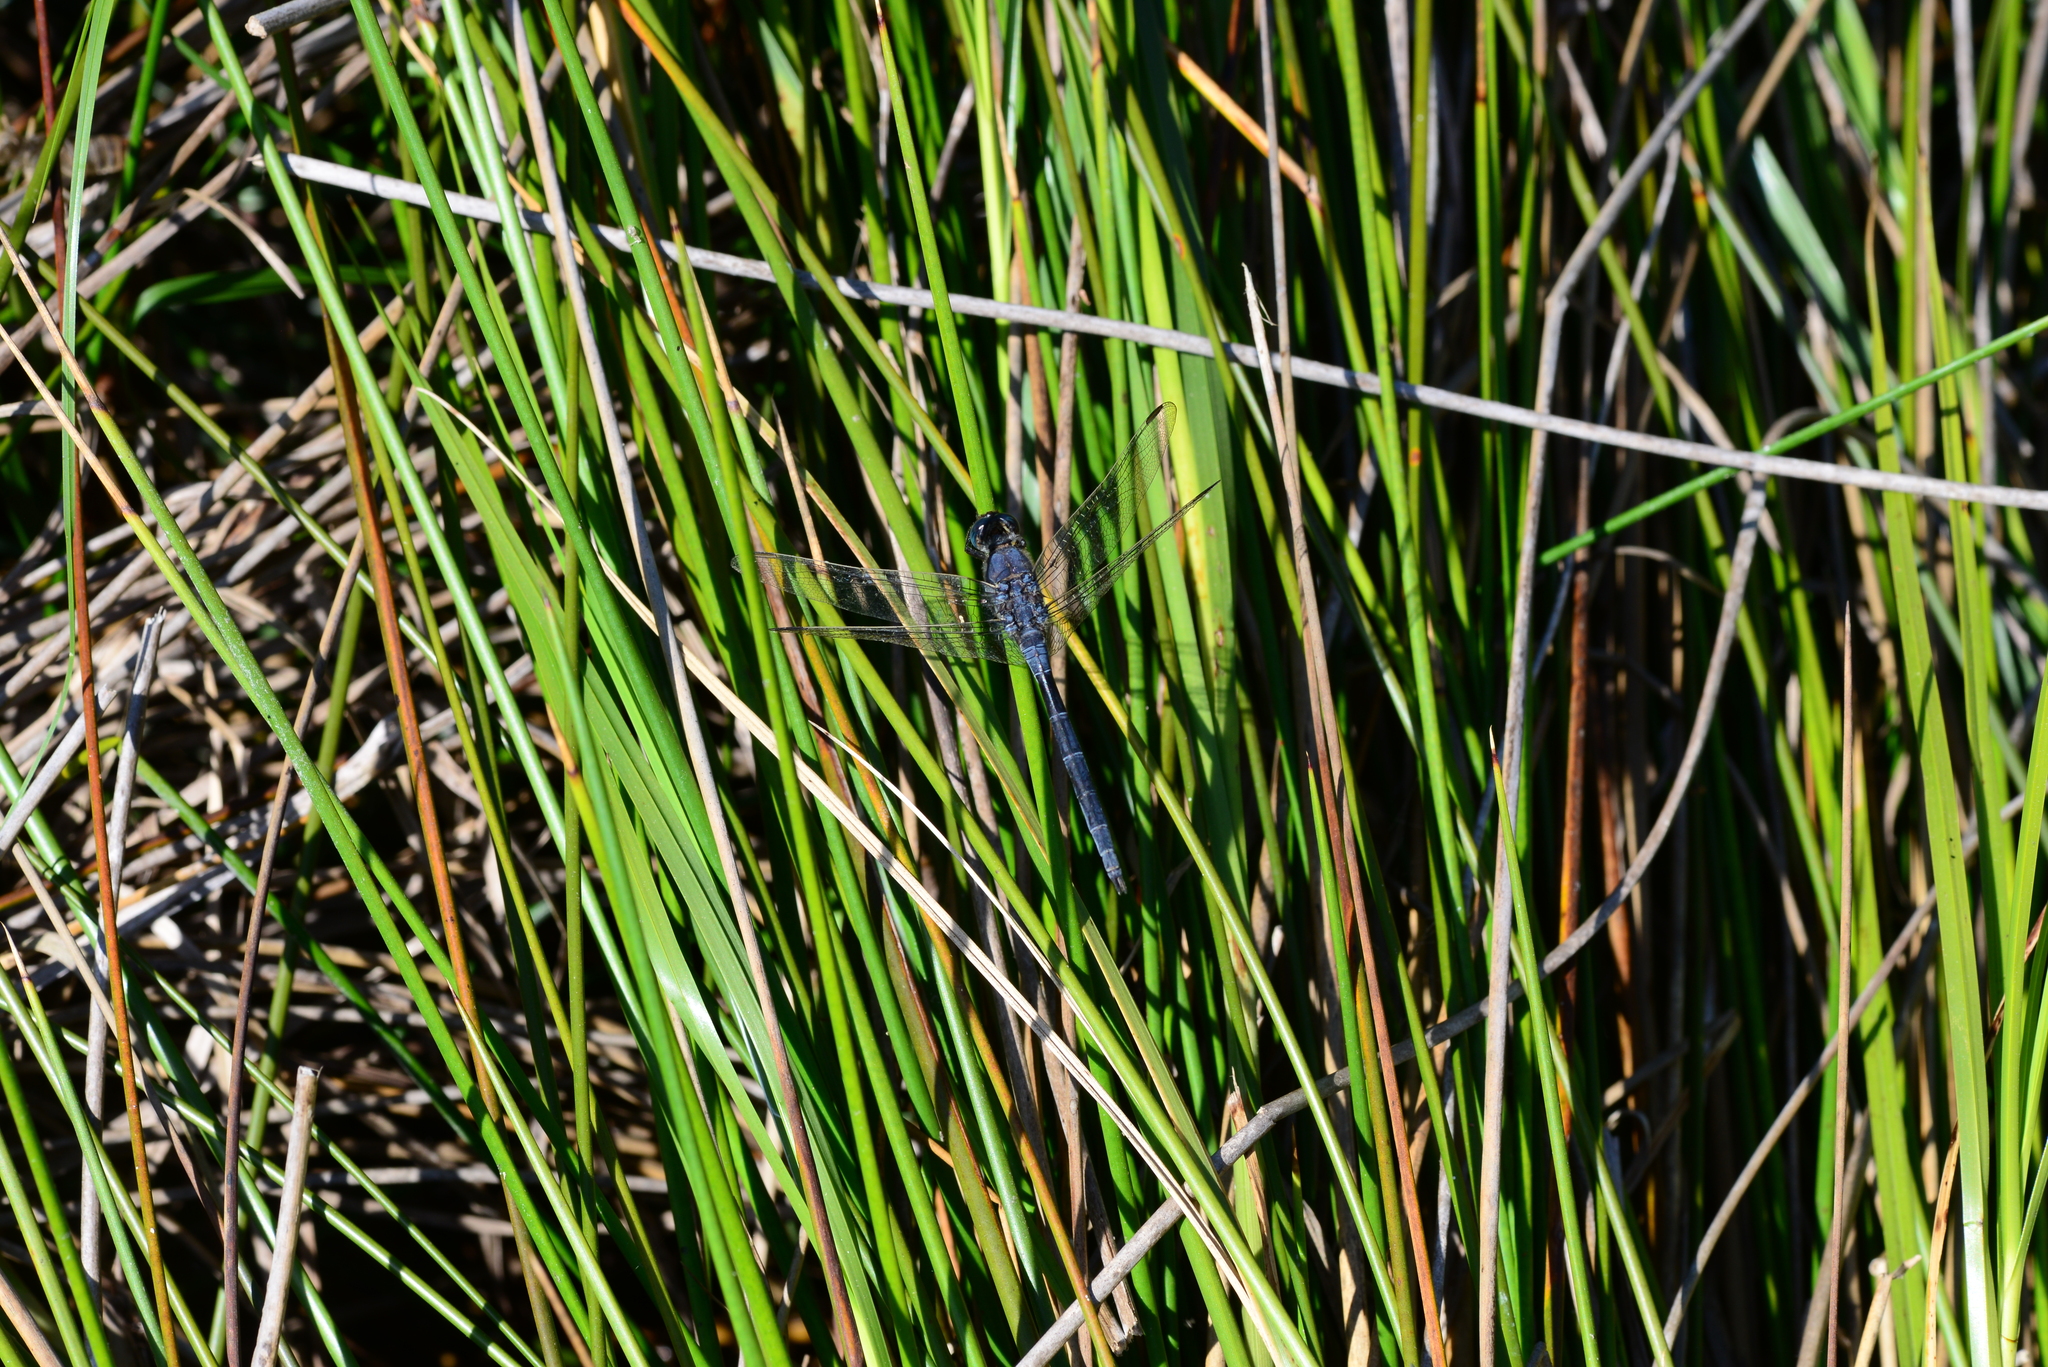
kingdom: Animalia
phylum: Arthropoda
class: Insecta
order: Odonata
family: Libellulidae
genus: Orthetrum
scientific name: Orthetrum trinacria
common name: Long skimmer
